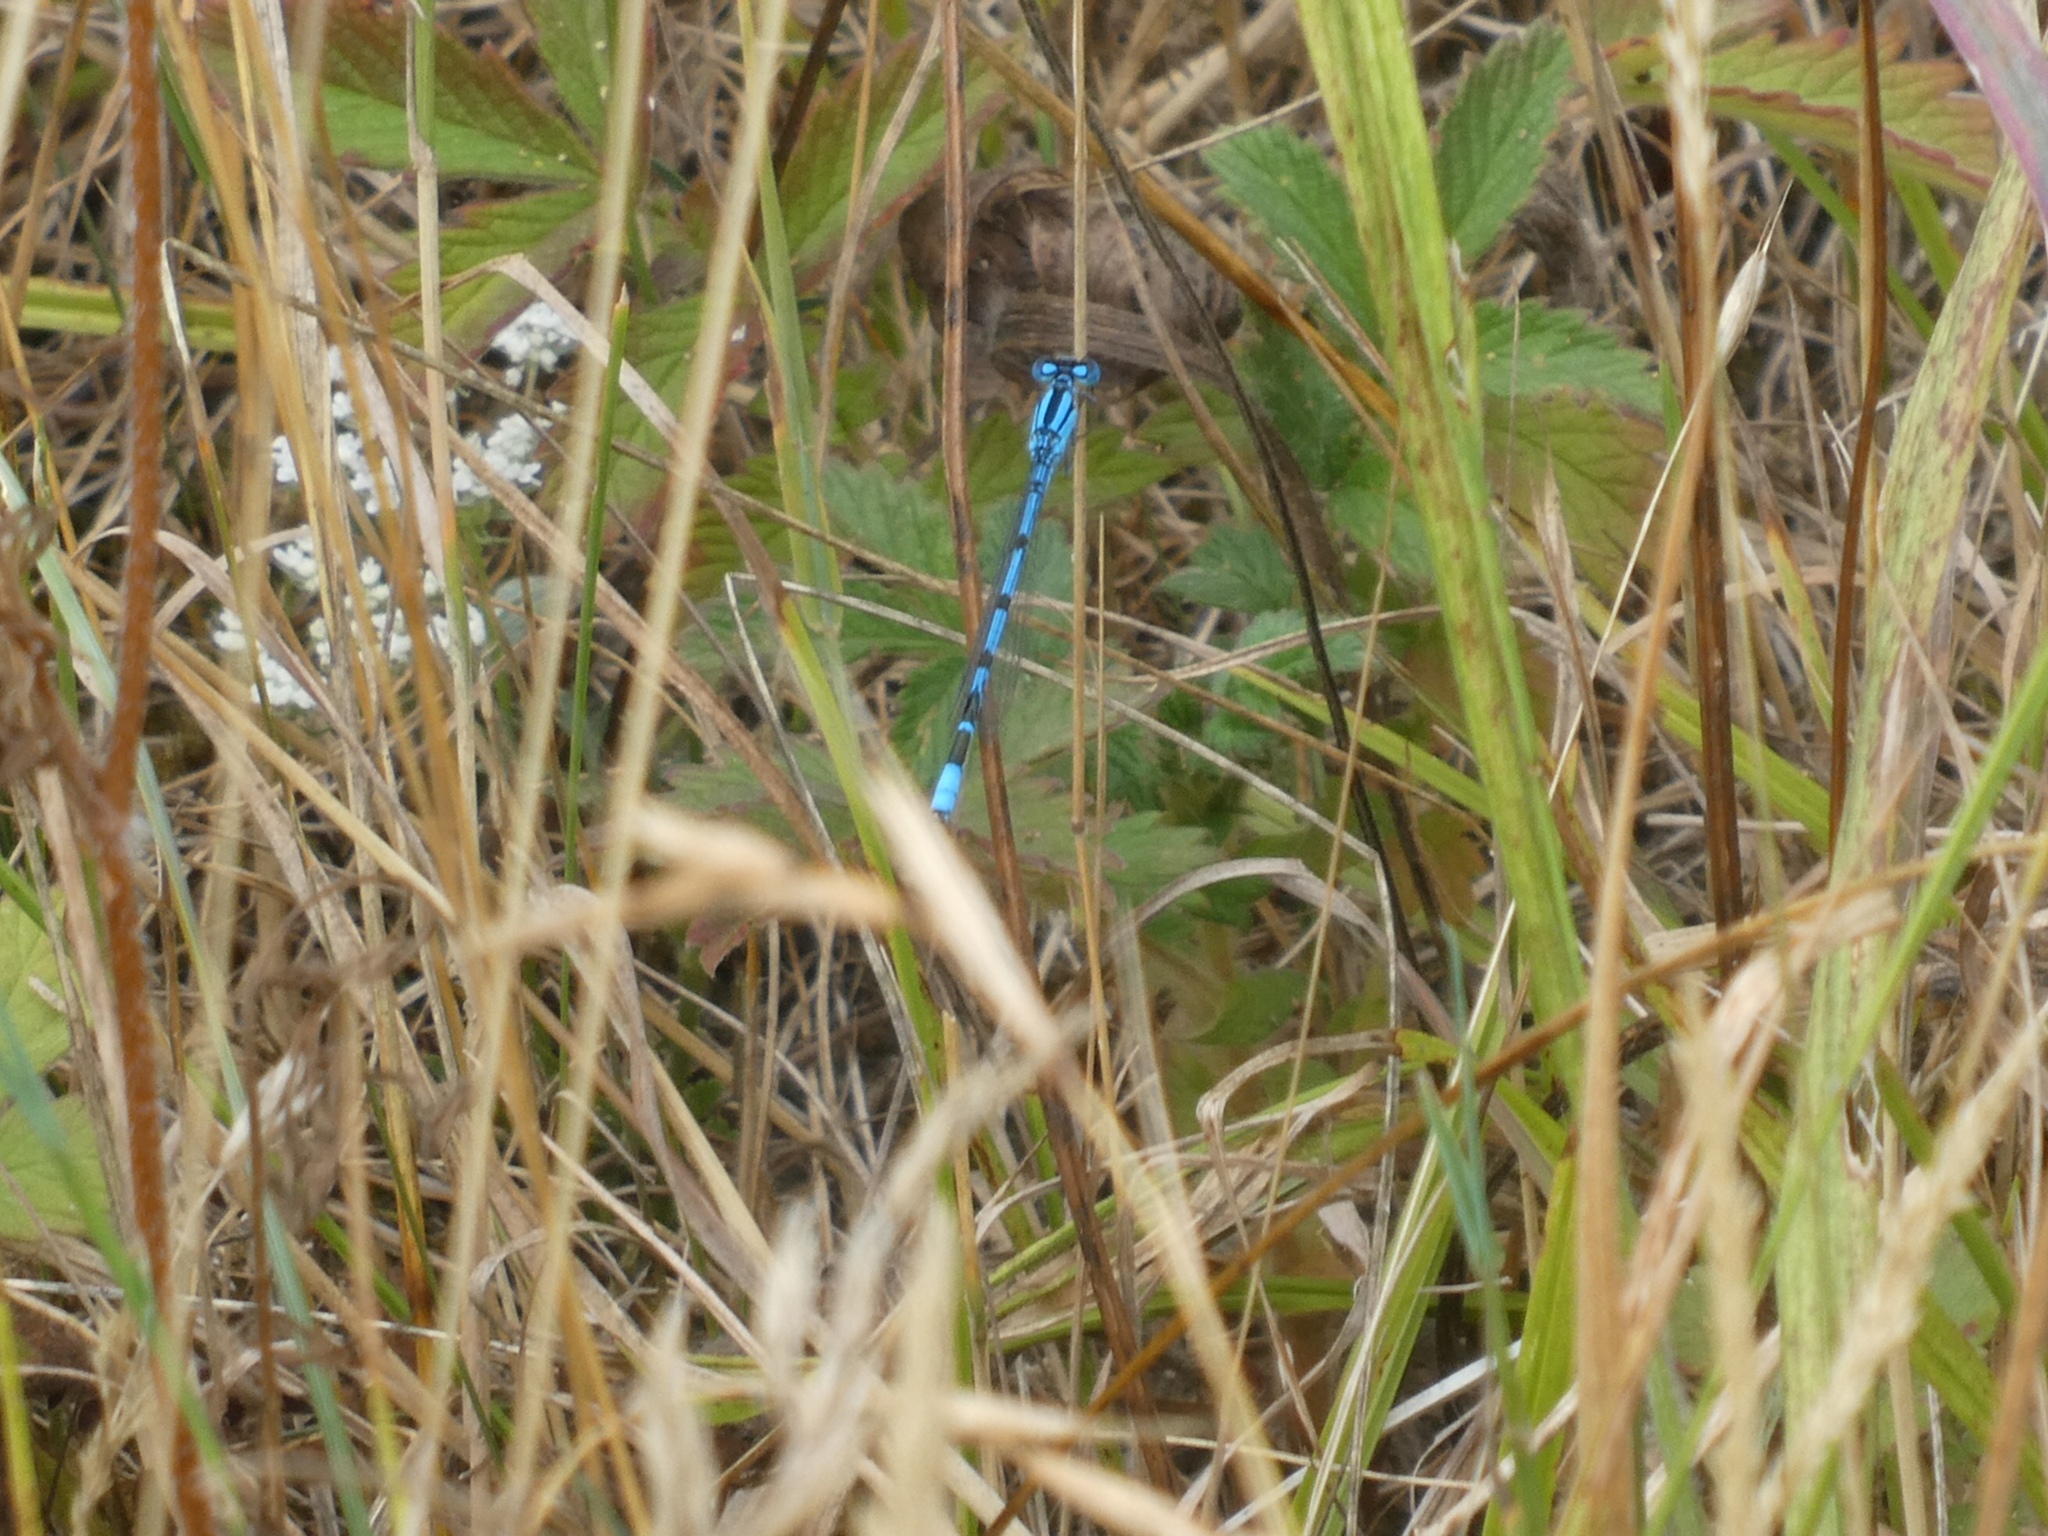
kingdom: Animalia
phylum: Arthropoda
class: Insecta
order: Odonata
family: Coenagrionidae
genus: Enallagma
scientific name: Enallagma cyathigerum
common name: Common blue damselfly
